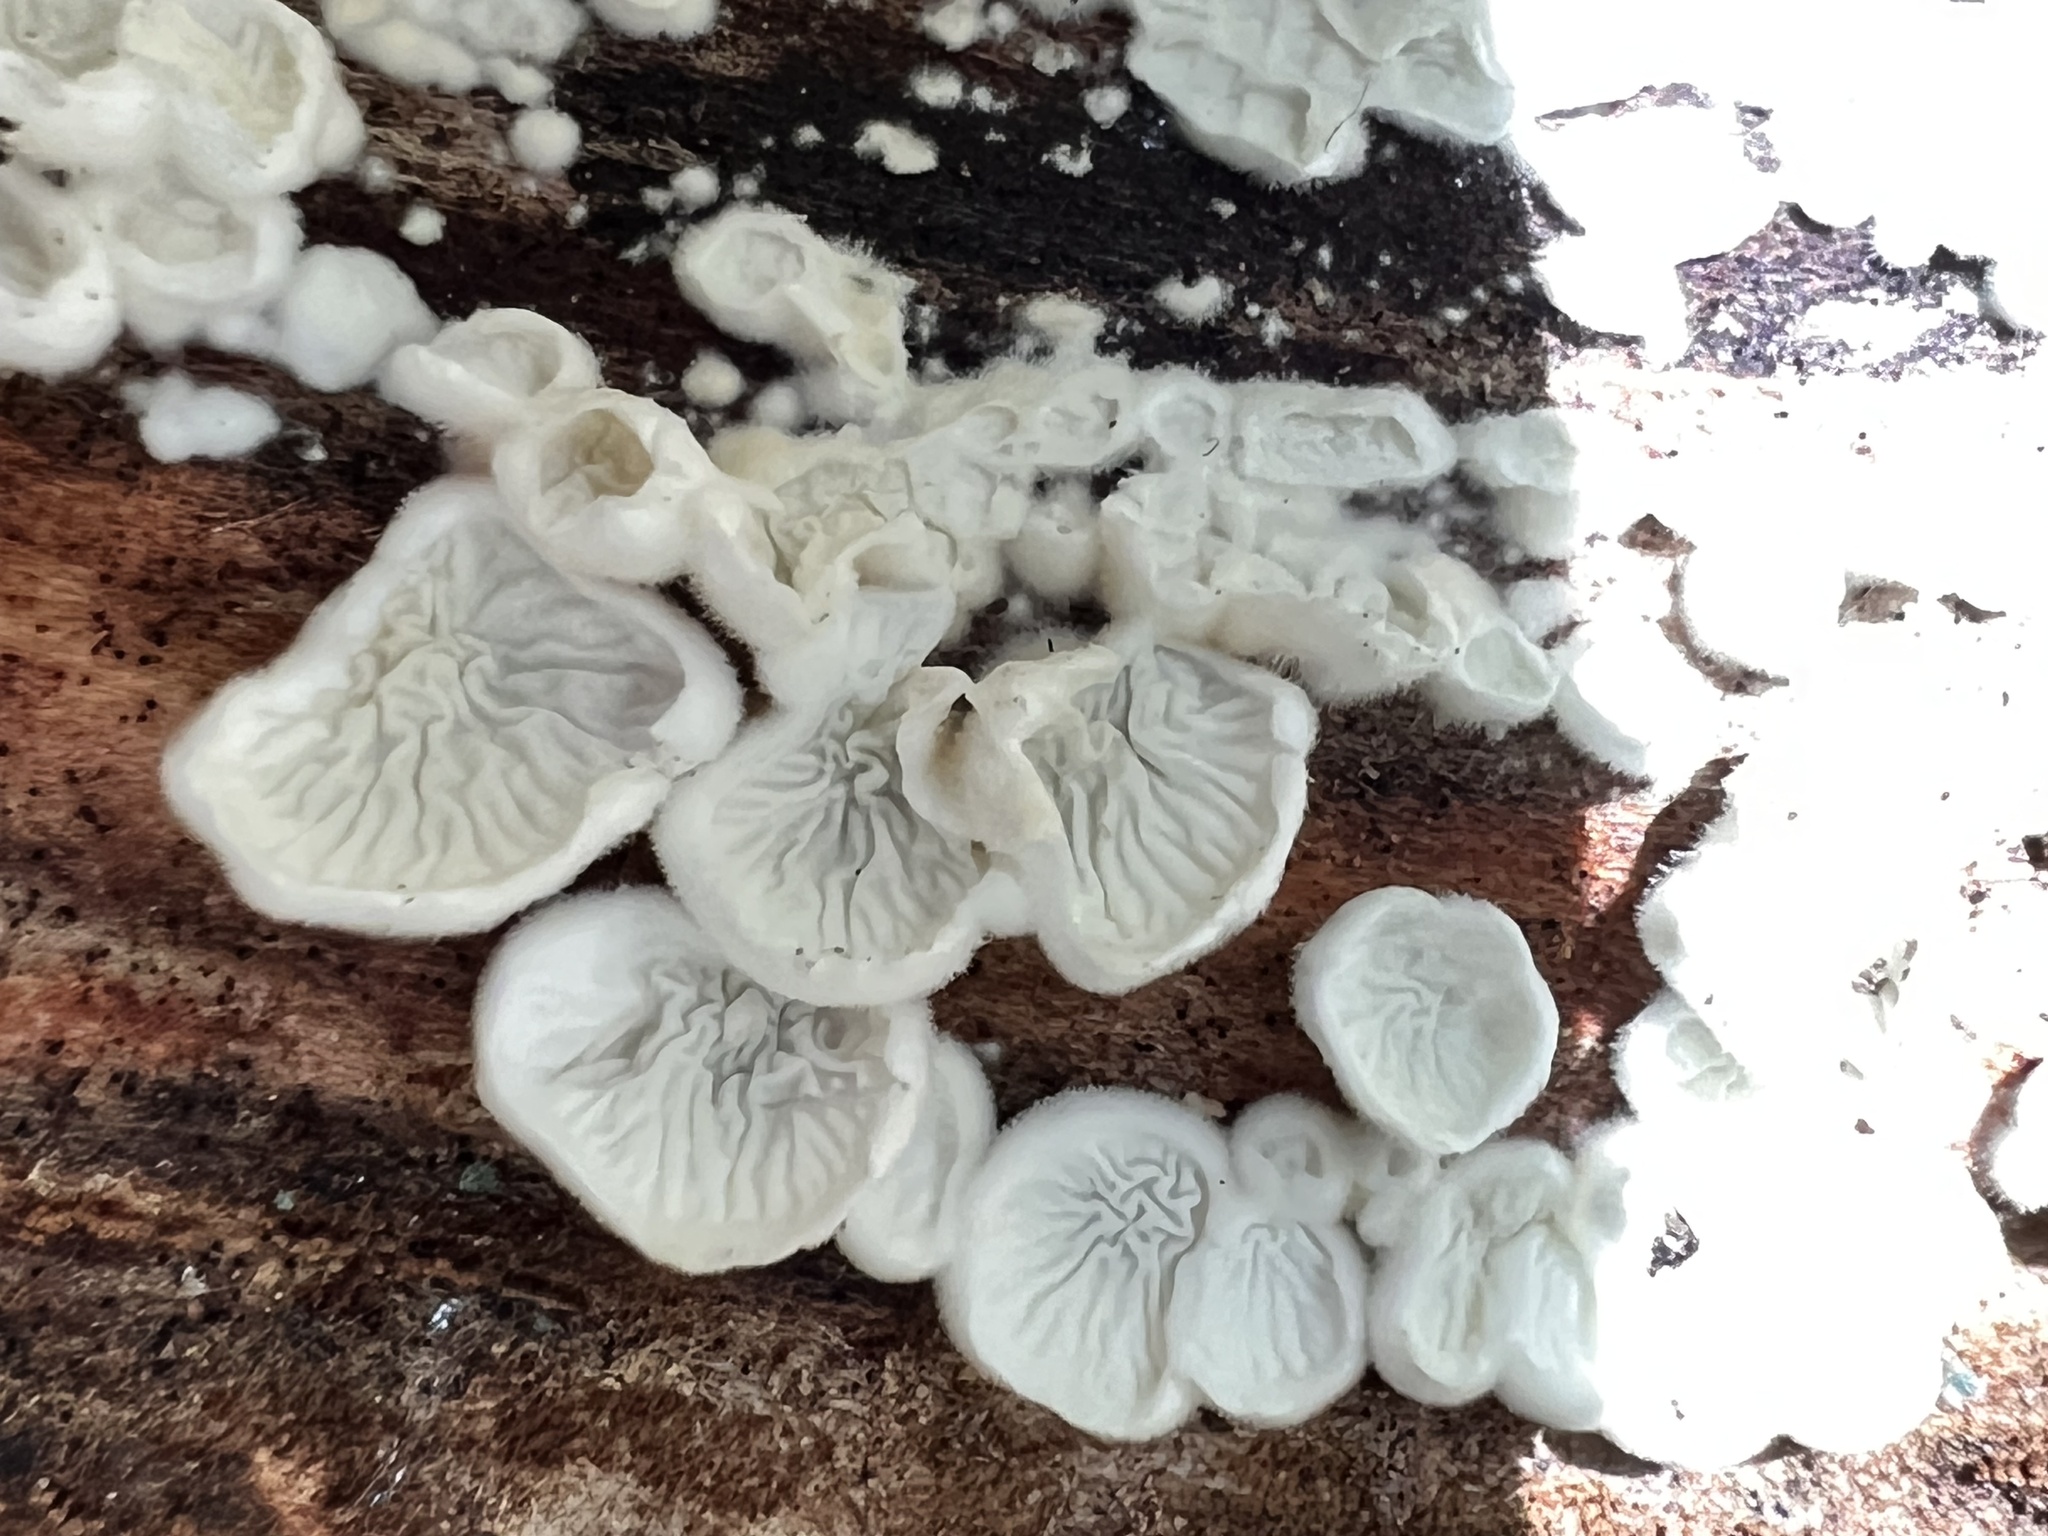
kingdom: Fungi
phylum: Basidiomycota
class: Agaricomycetes
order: Amylocorticiales
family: Amylocorticiaceae
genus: Plicaturopsis
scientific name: Plicaturopsis crispa
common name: Crimped gill
